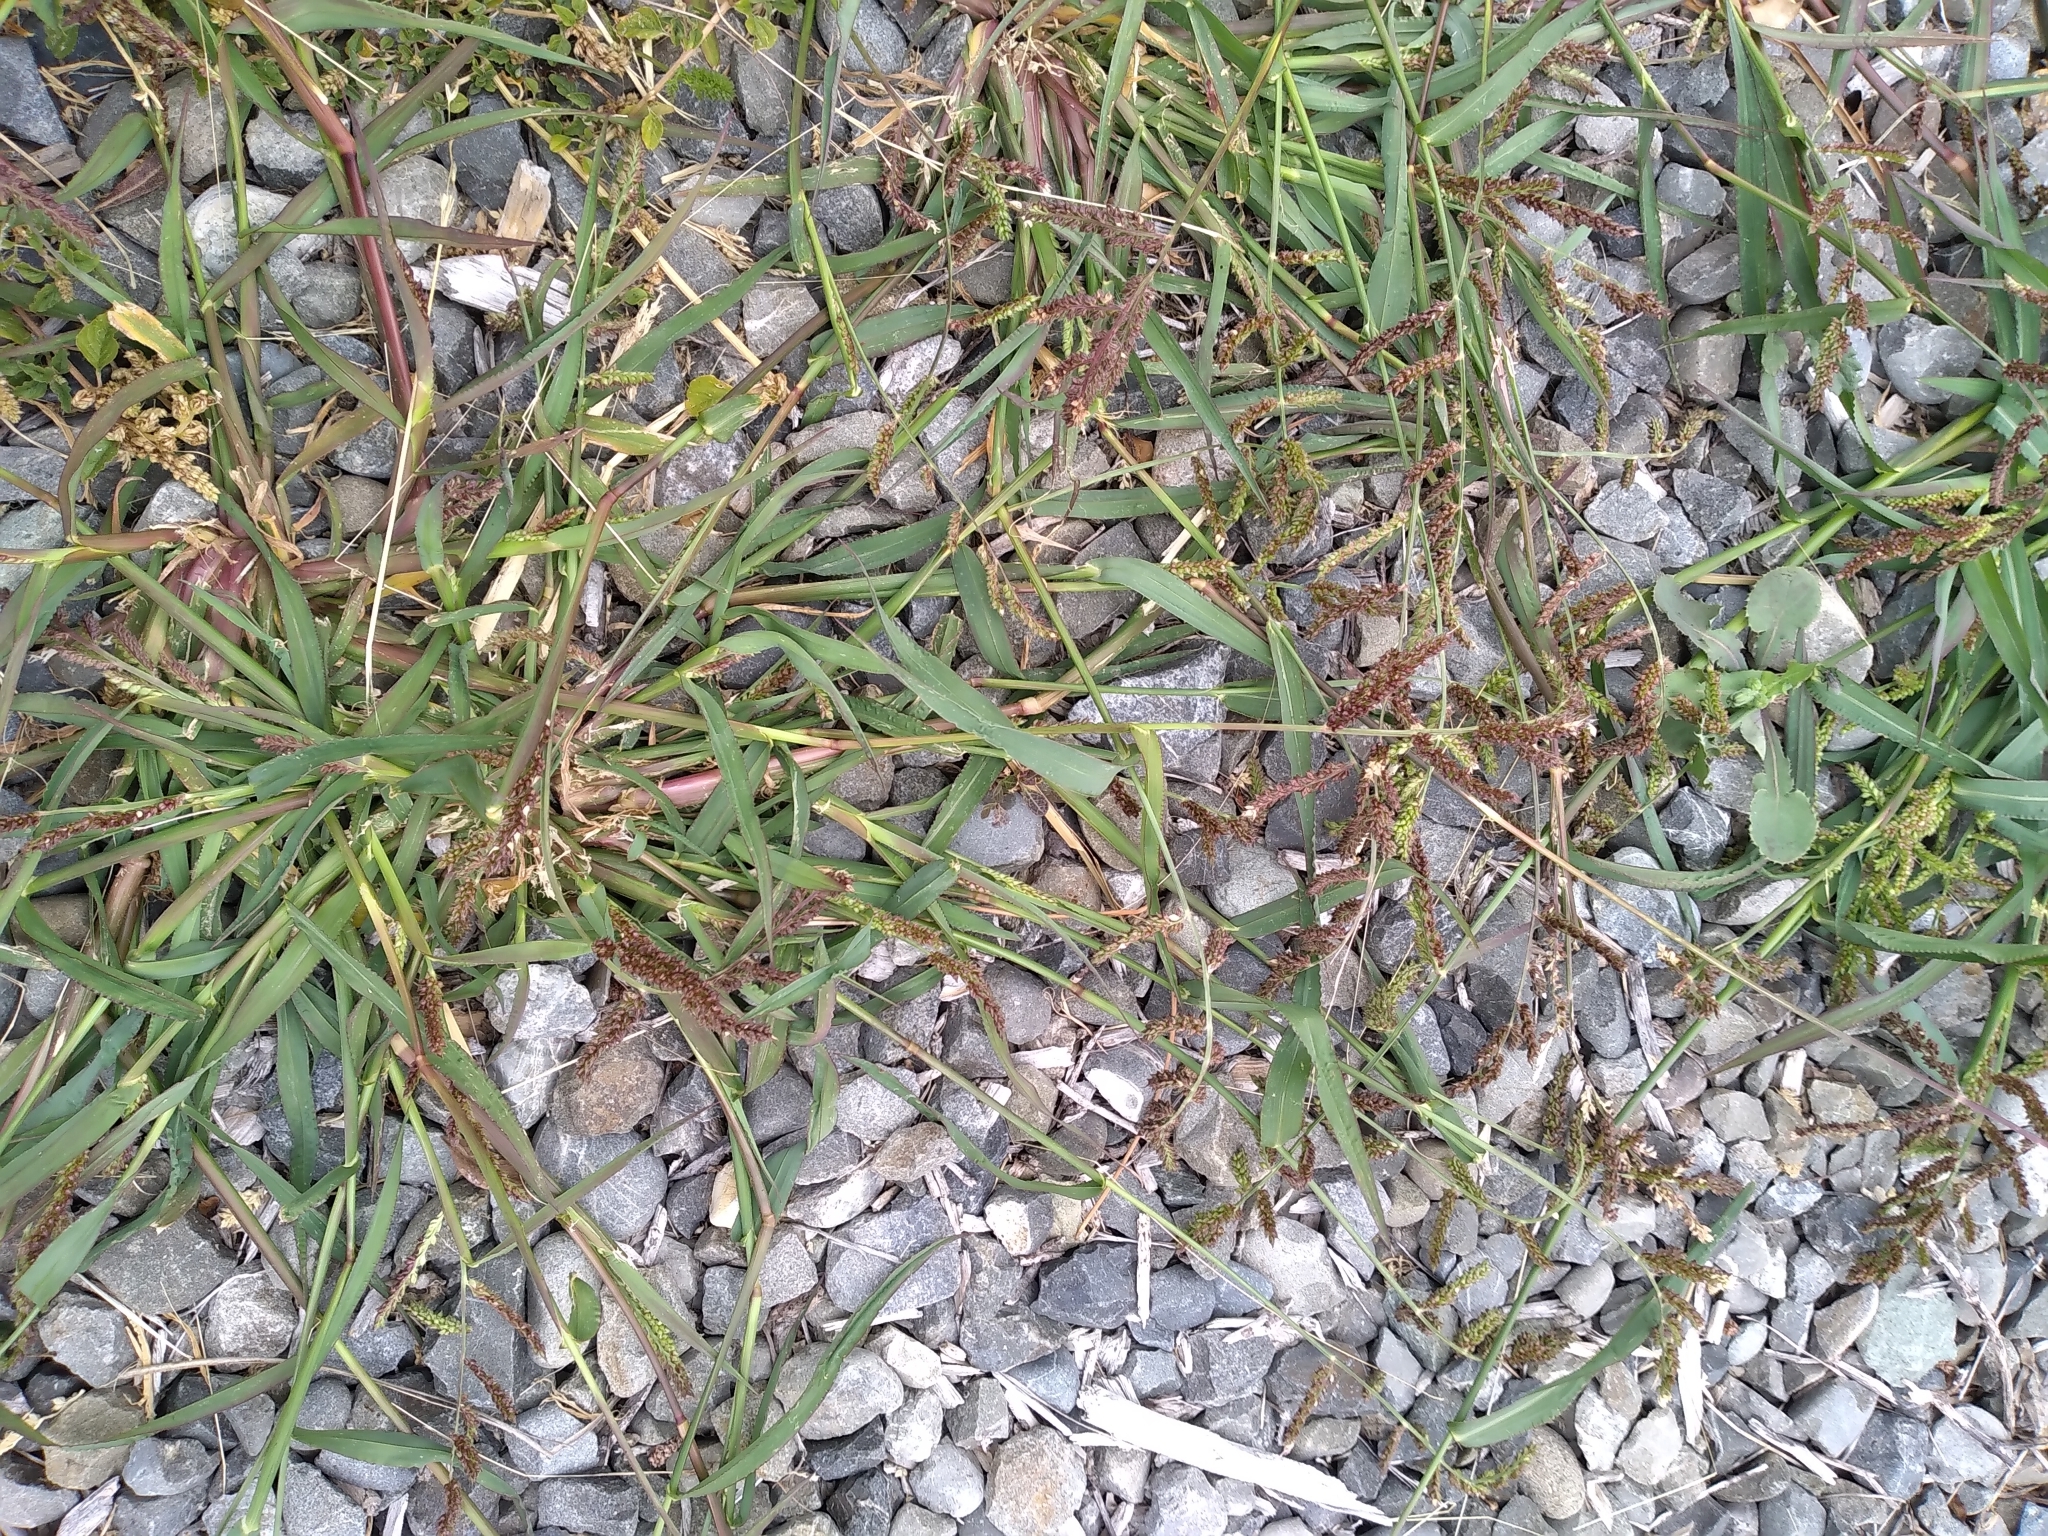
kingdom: Plantae
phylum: Tracheophyta
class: Liliopsida
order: Poales
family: Poaceae
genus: Echinochloa
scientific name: Echinochloa crus-galli
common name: Cockspur
